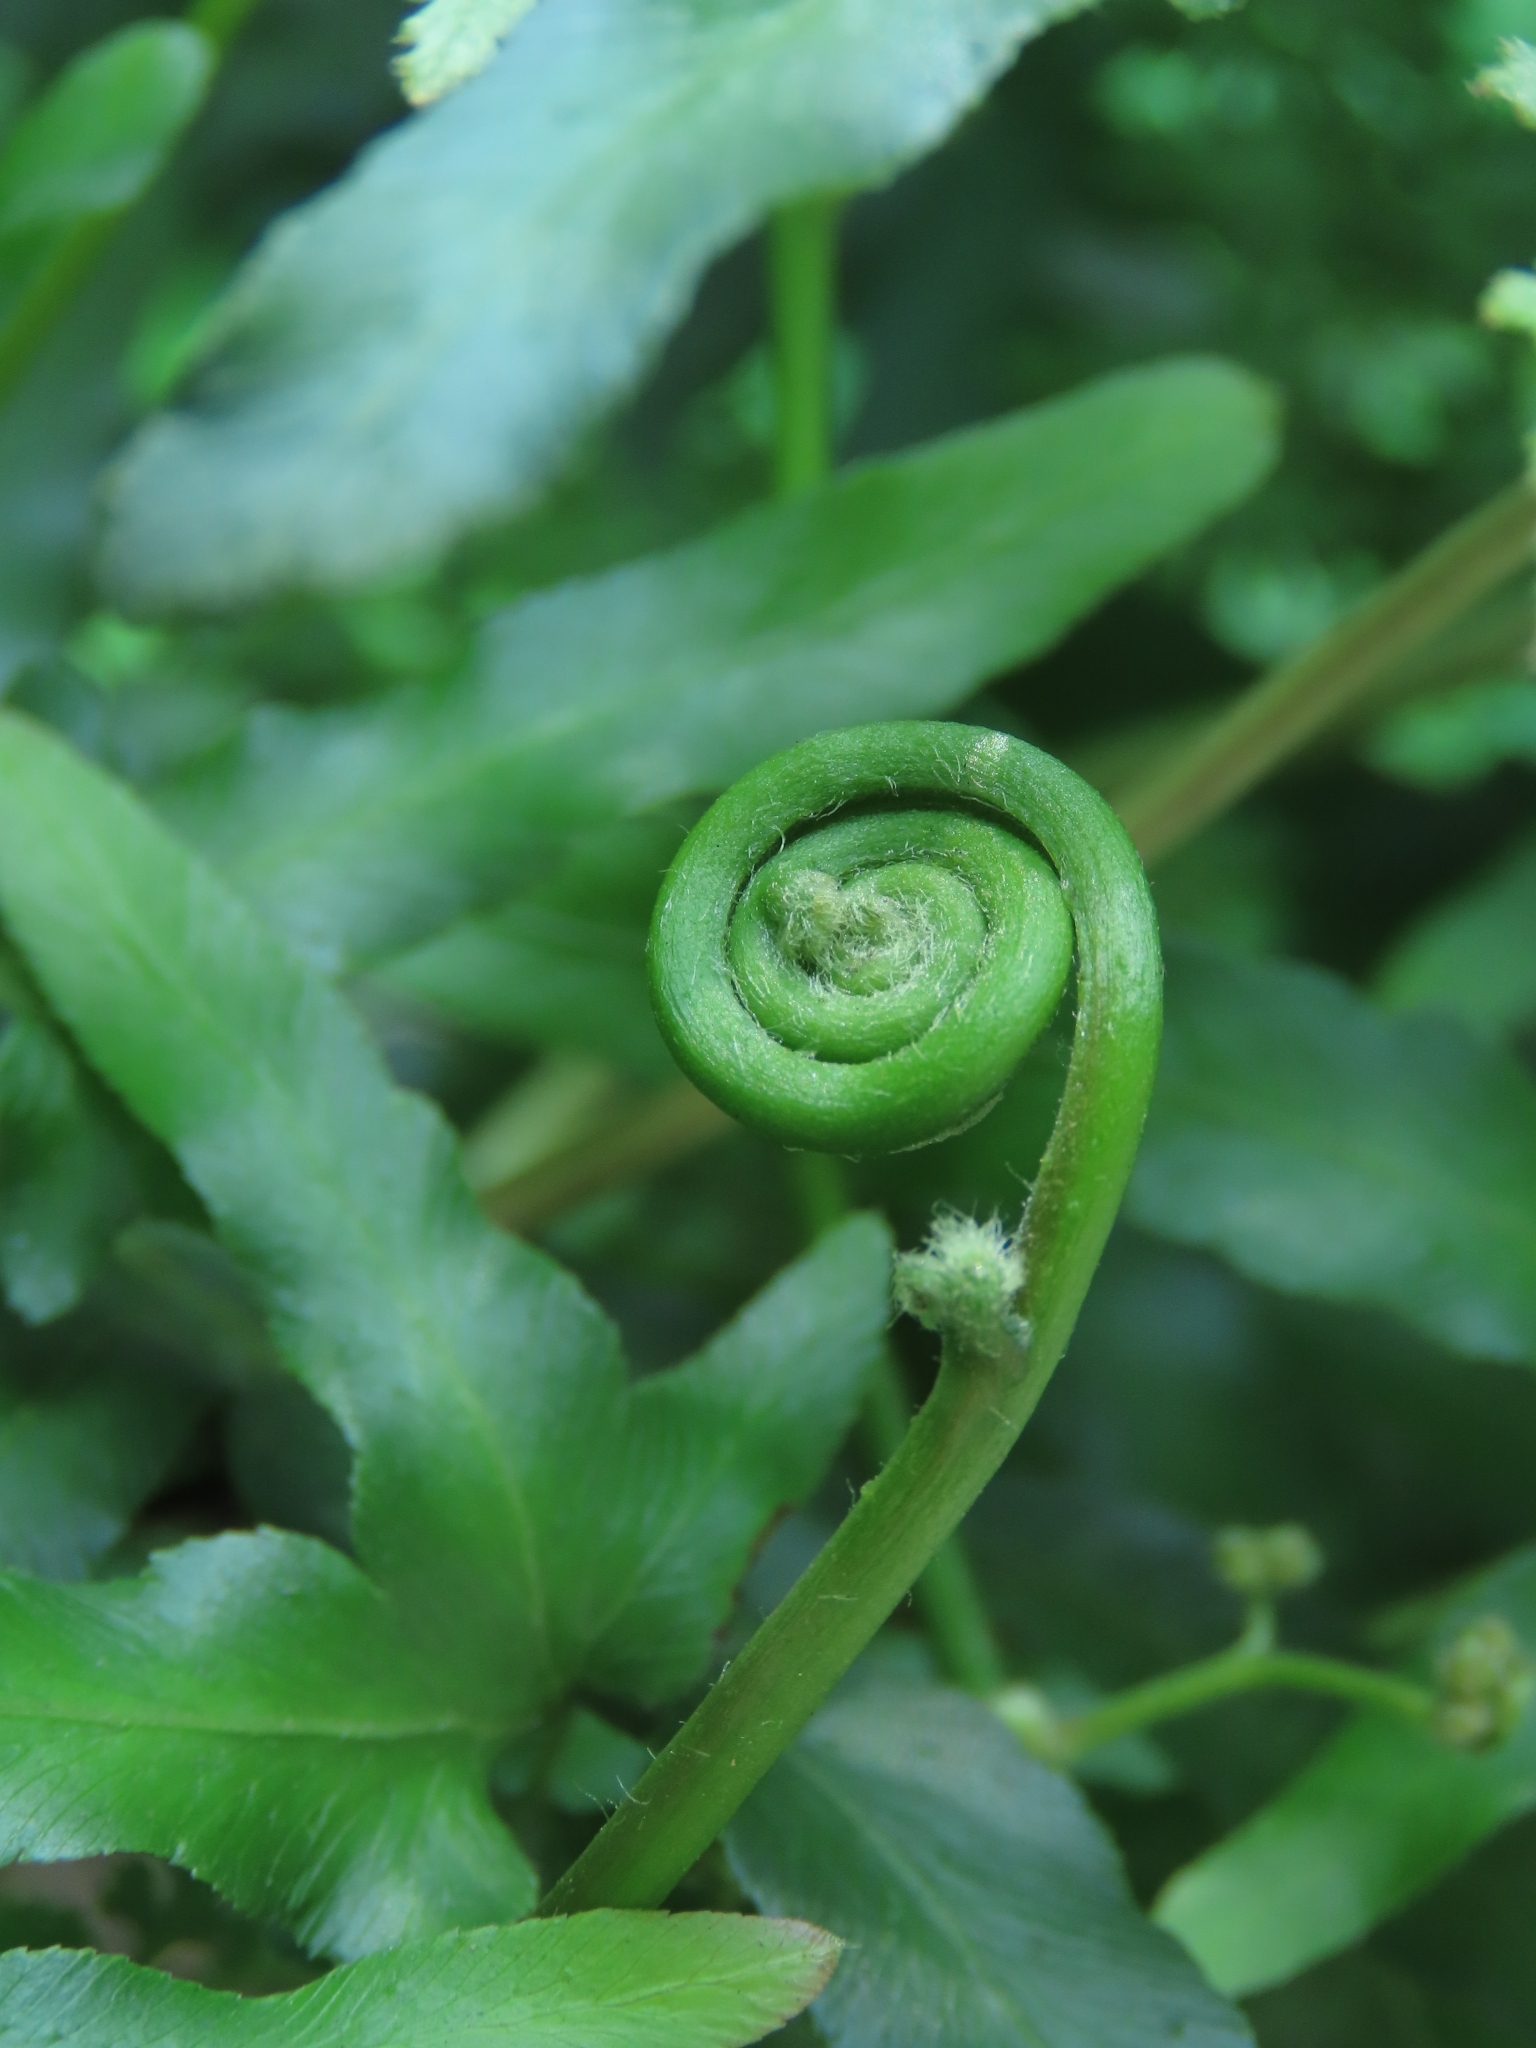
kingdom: Plantae
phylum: Tracheophyta
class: Polypodiopsida
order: Schizaeales
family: Lygodiaceae
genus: Lygodium
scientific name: Lygodium japonicum
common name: Japanese climbing fern
